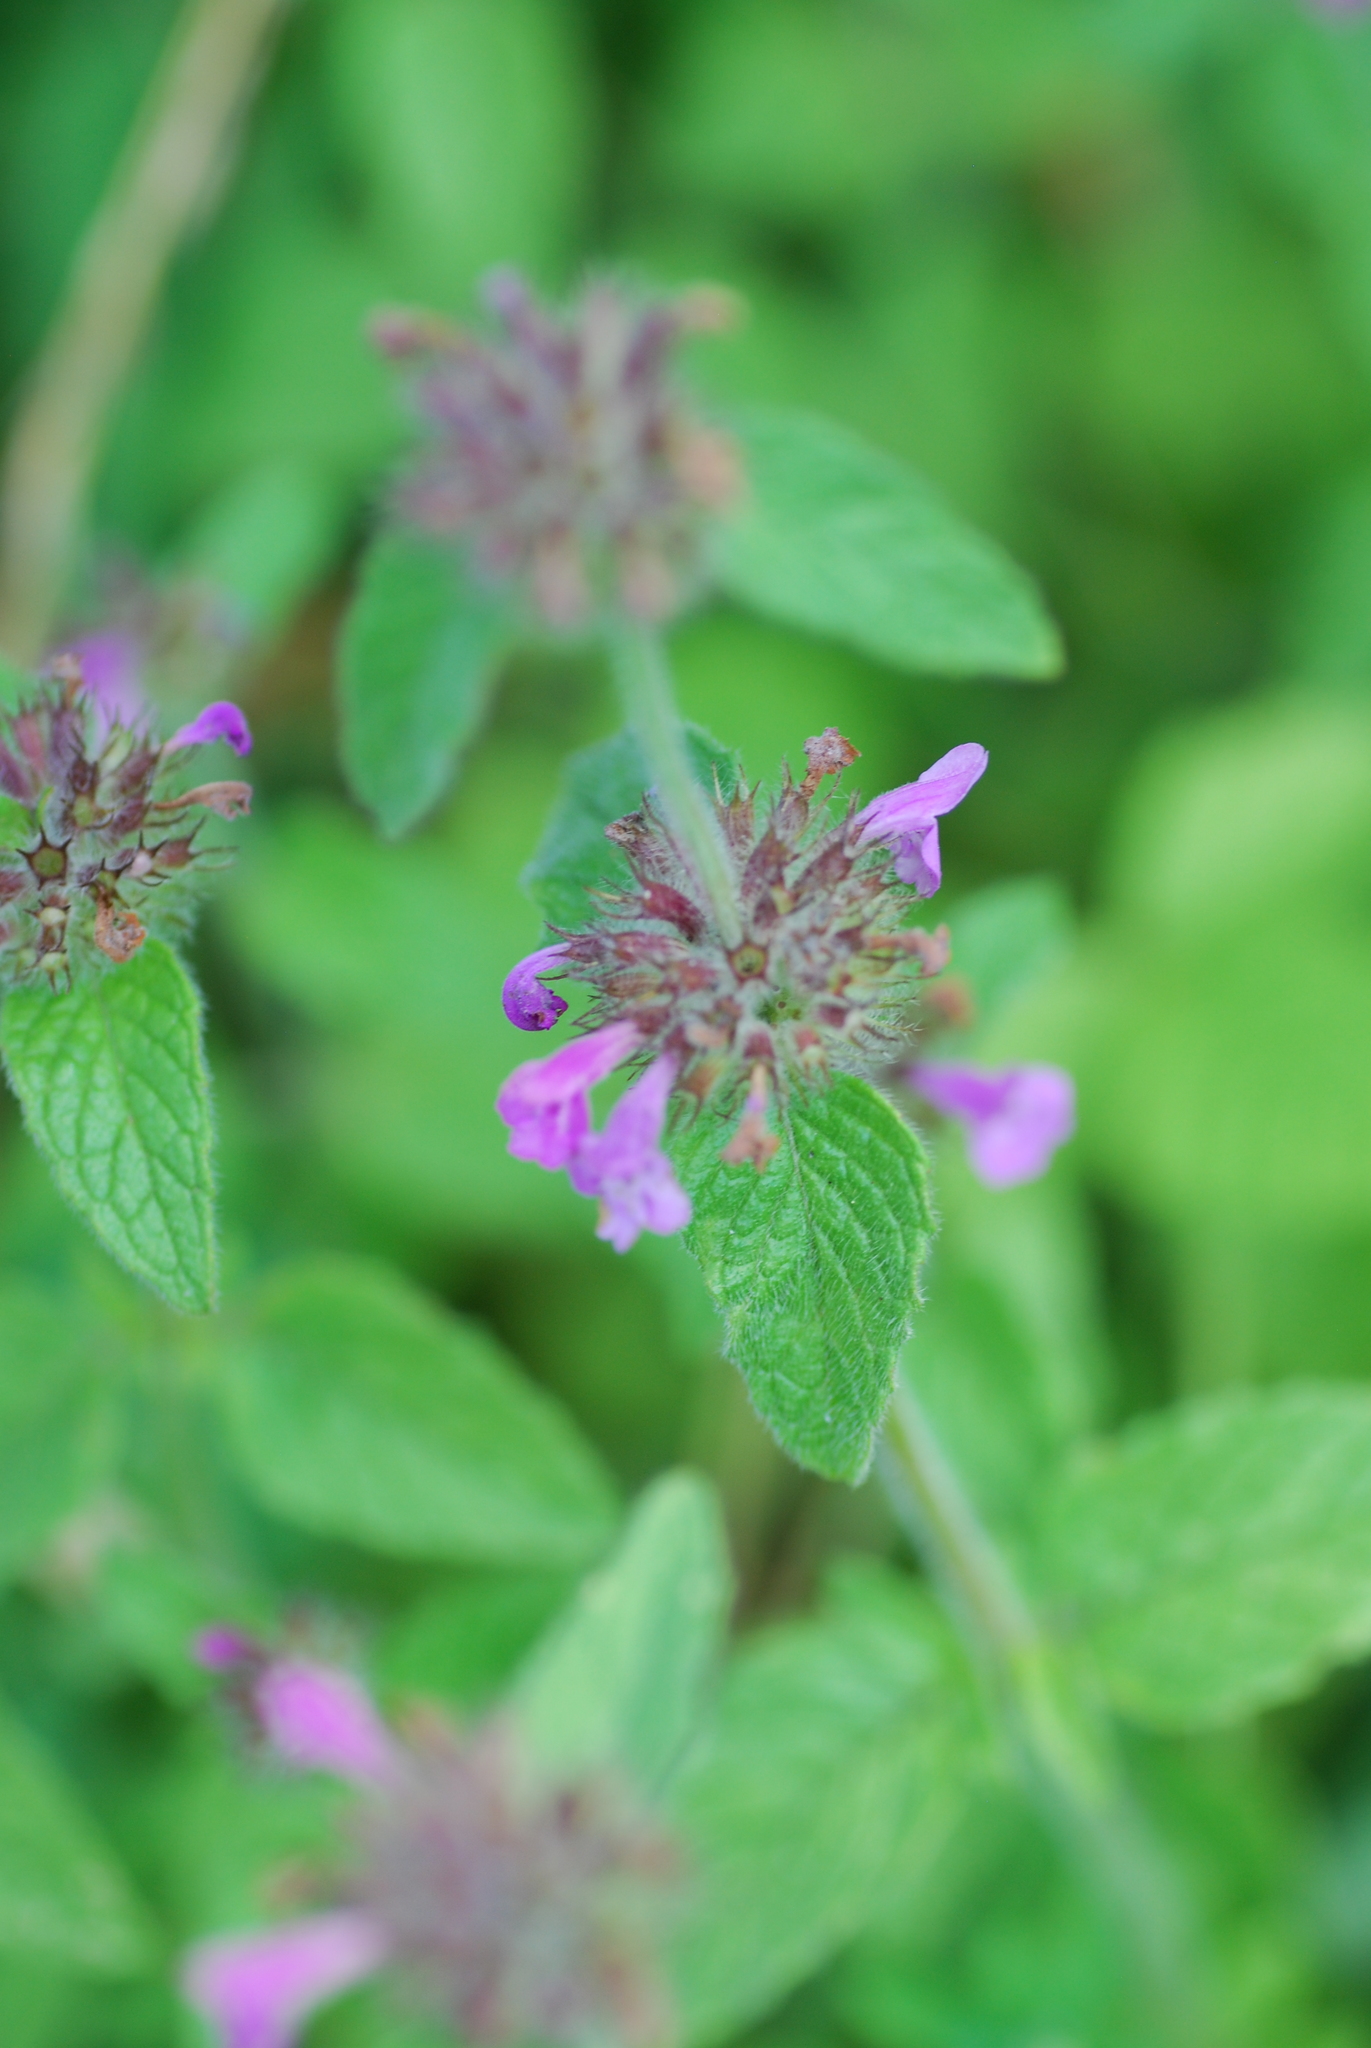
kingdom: Plantae
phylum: Tracheophyta
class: Magnoliopsida
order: Lamiales
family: Lamiaceae
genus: Clinopodium
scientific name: Clinopodium vulgare
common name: Wild basil
